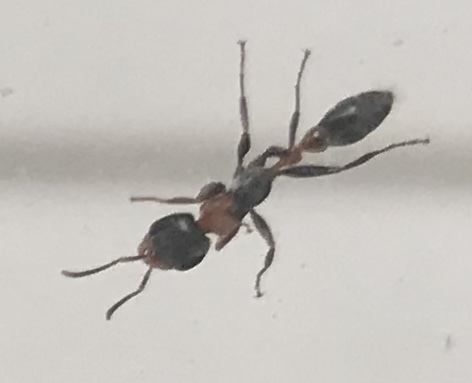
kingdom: Animalia
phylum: Arthropoda
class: Insecta
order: Hymenoptera
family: Formicidae
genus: Pseudomyrmex
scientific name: Pseudomyrmex gracilis
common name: Graceful twig ant
